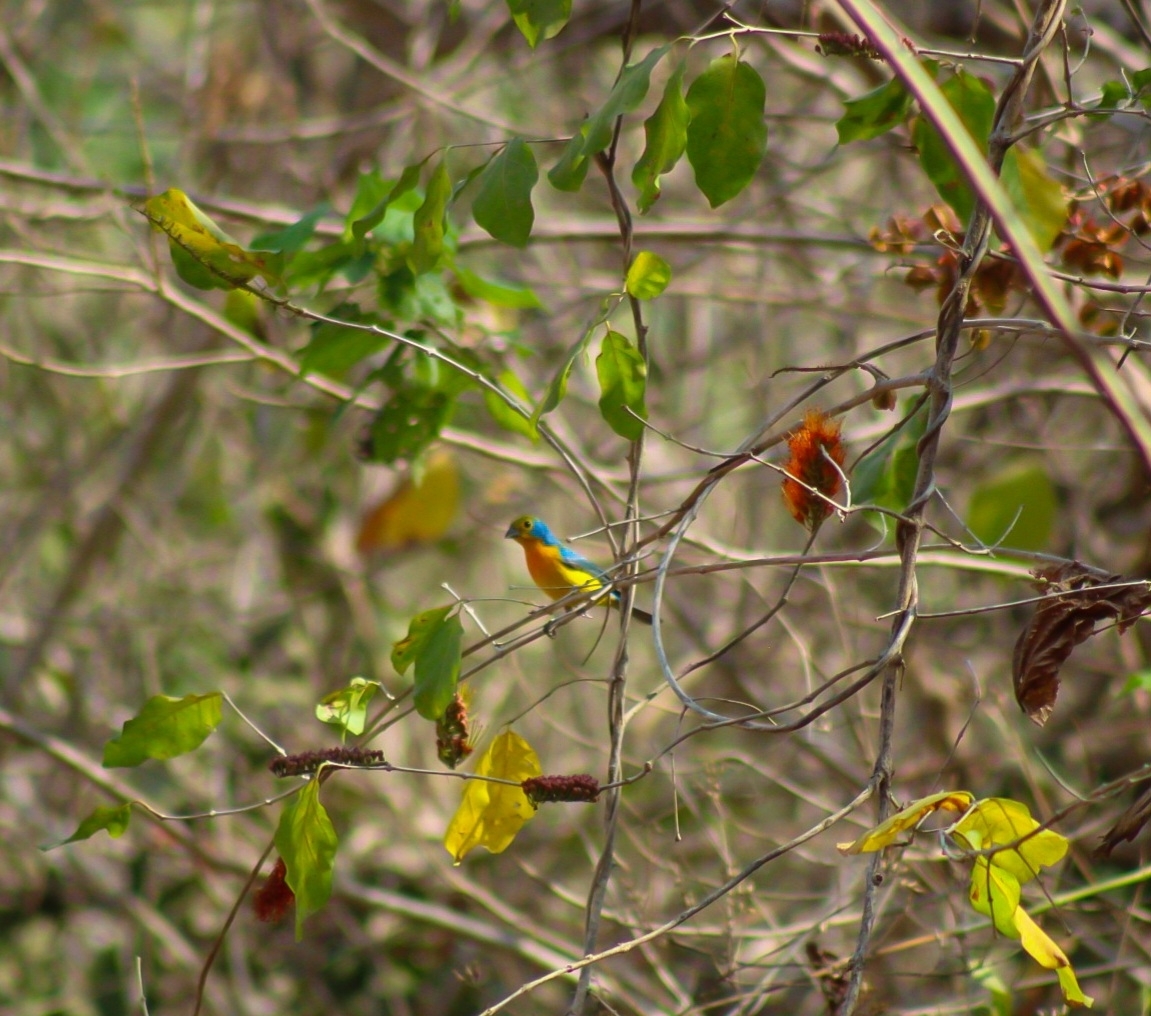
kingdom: Animalia
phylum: Chordata
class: Aves
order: Passeriformes
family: Cardinalidae
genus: Passerina
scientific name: Passerina leclancherii
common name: Orange-breasted bunting
